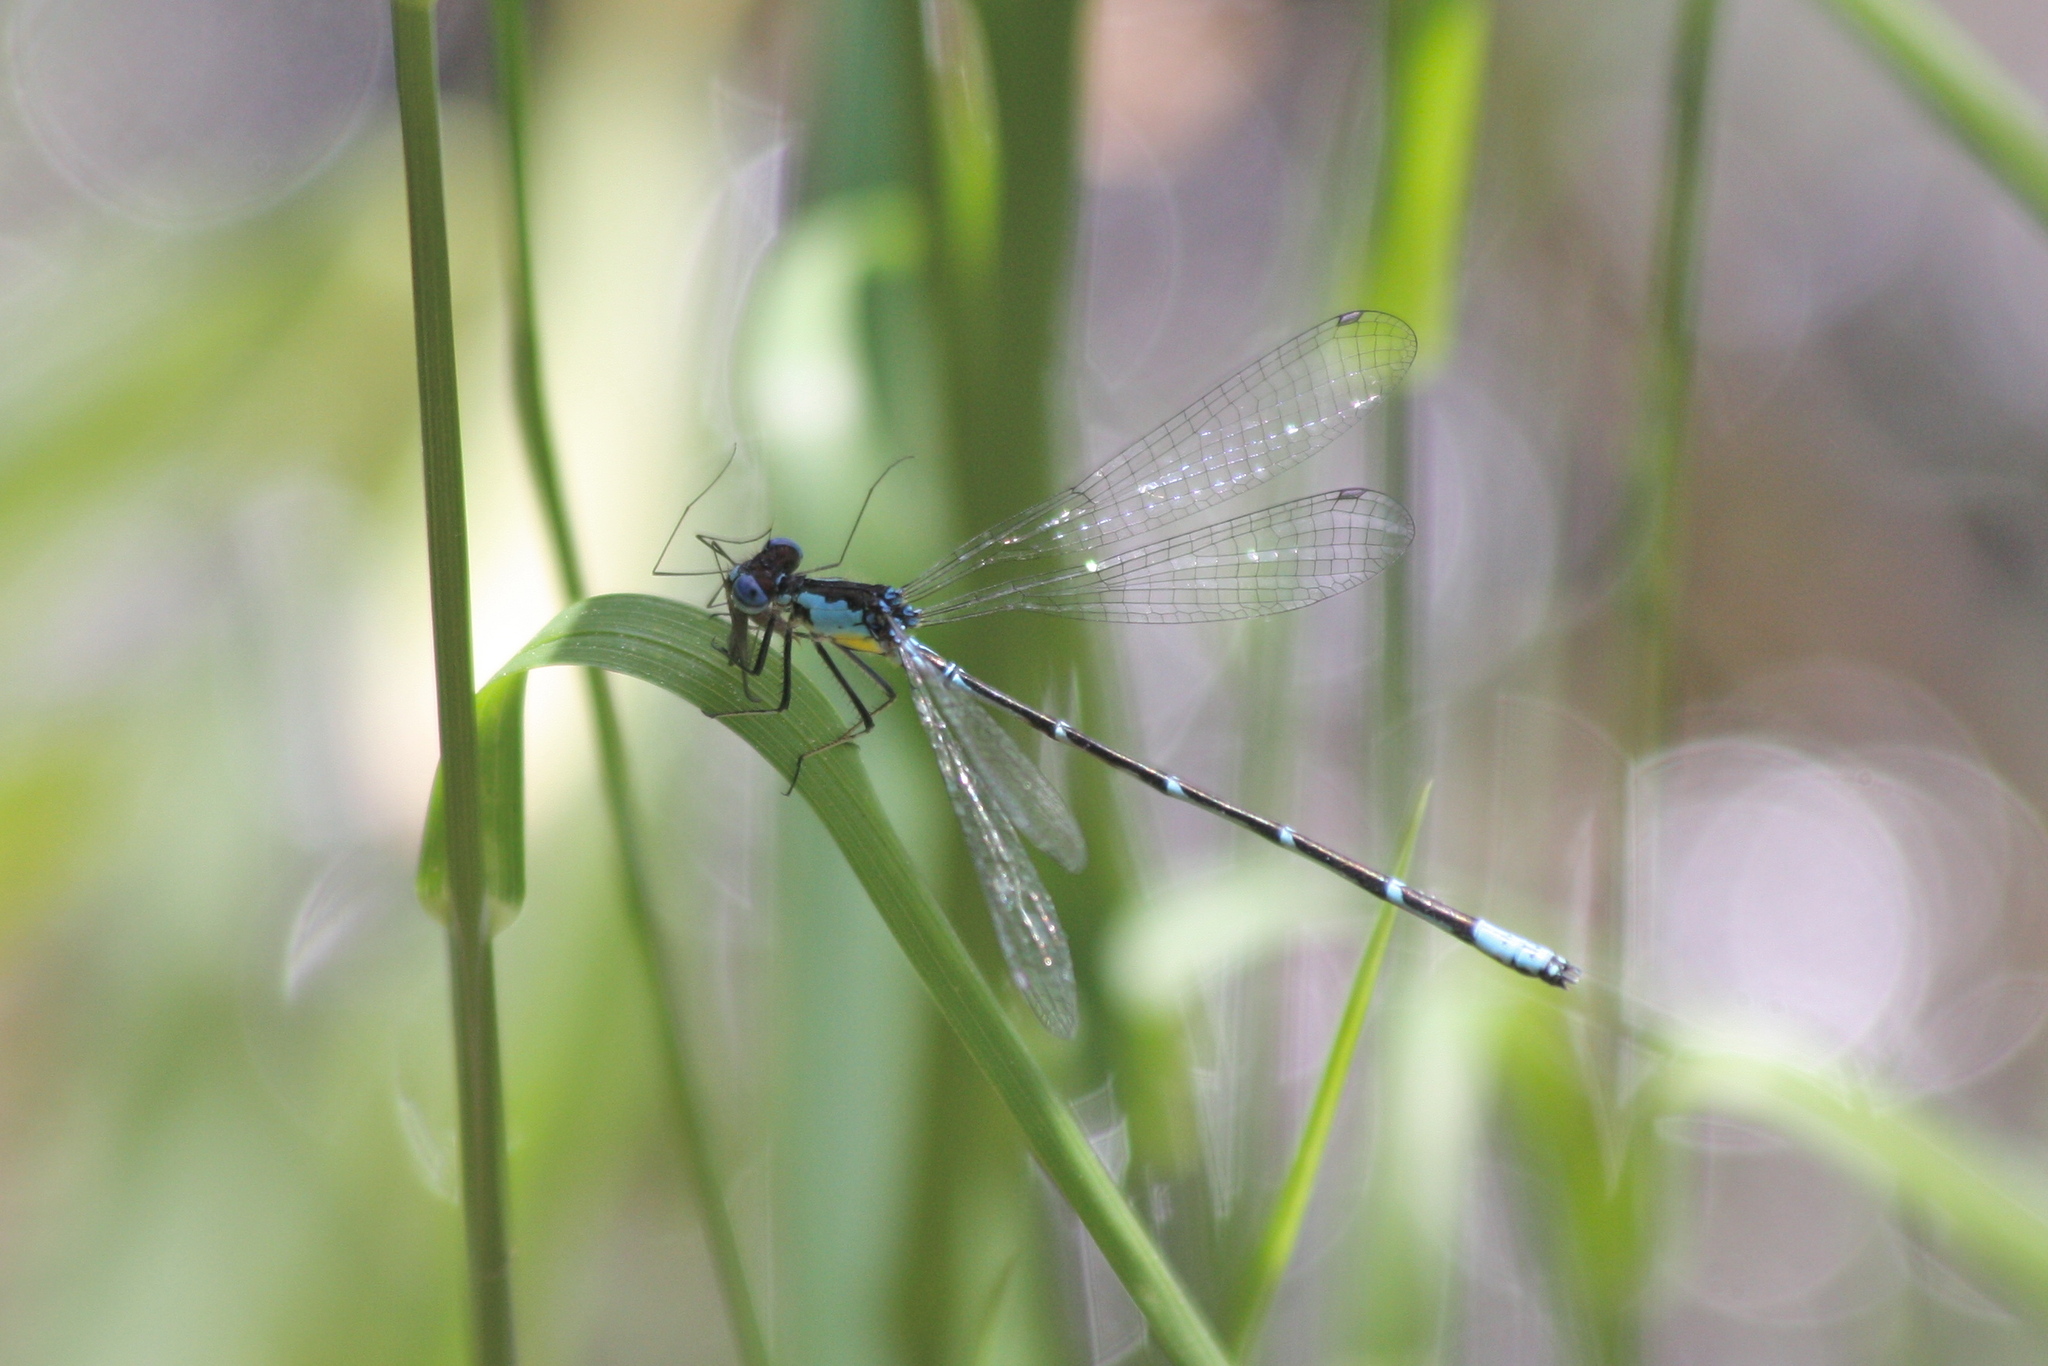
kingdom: Animalia
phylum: Arthropoda
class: Insecta
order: Odonata
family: Coenagrionidae
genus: Chromagrion
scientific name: Chromagrion conditum
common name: Aurora damsel
